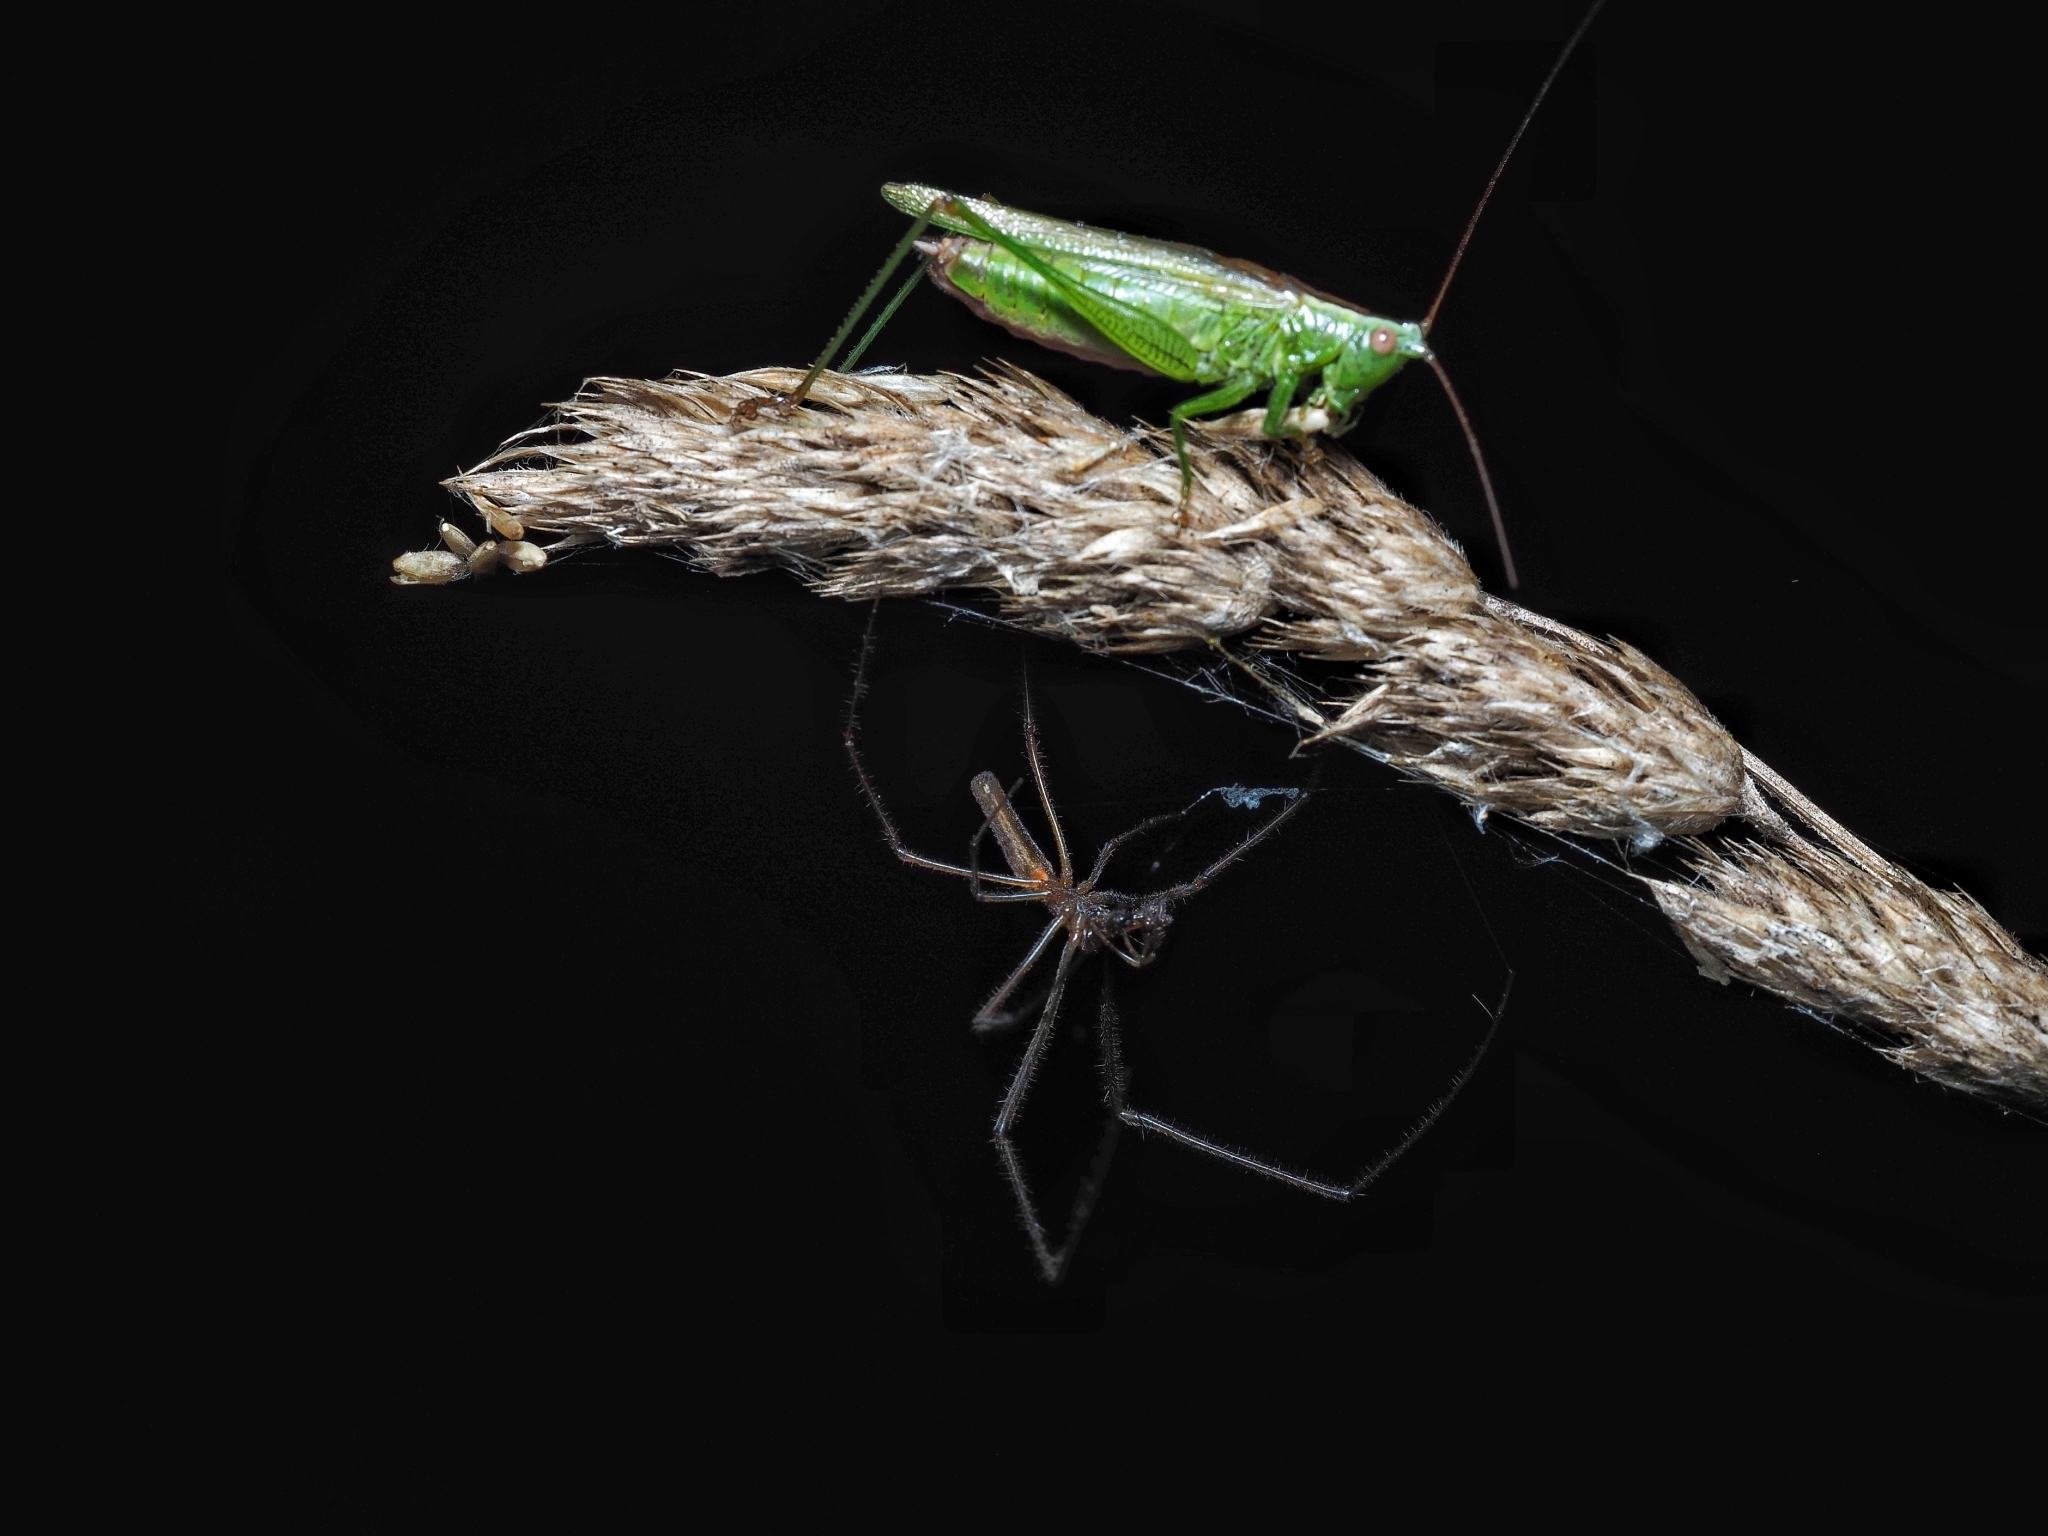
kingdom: Animalia
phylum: Arthropoda
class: Insecta
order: Orthoptera
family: Tettigoniidae
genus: Conocephalus
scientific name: Conocephalus fuscus
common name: Long-winged conehead
